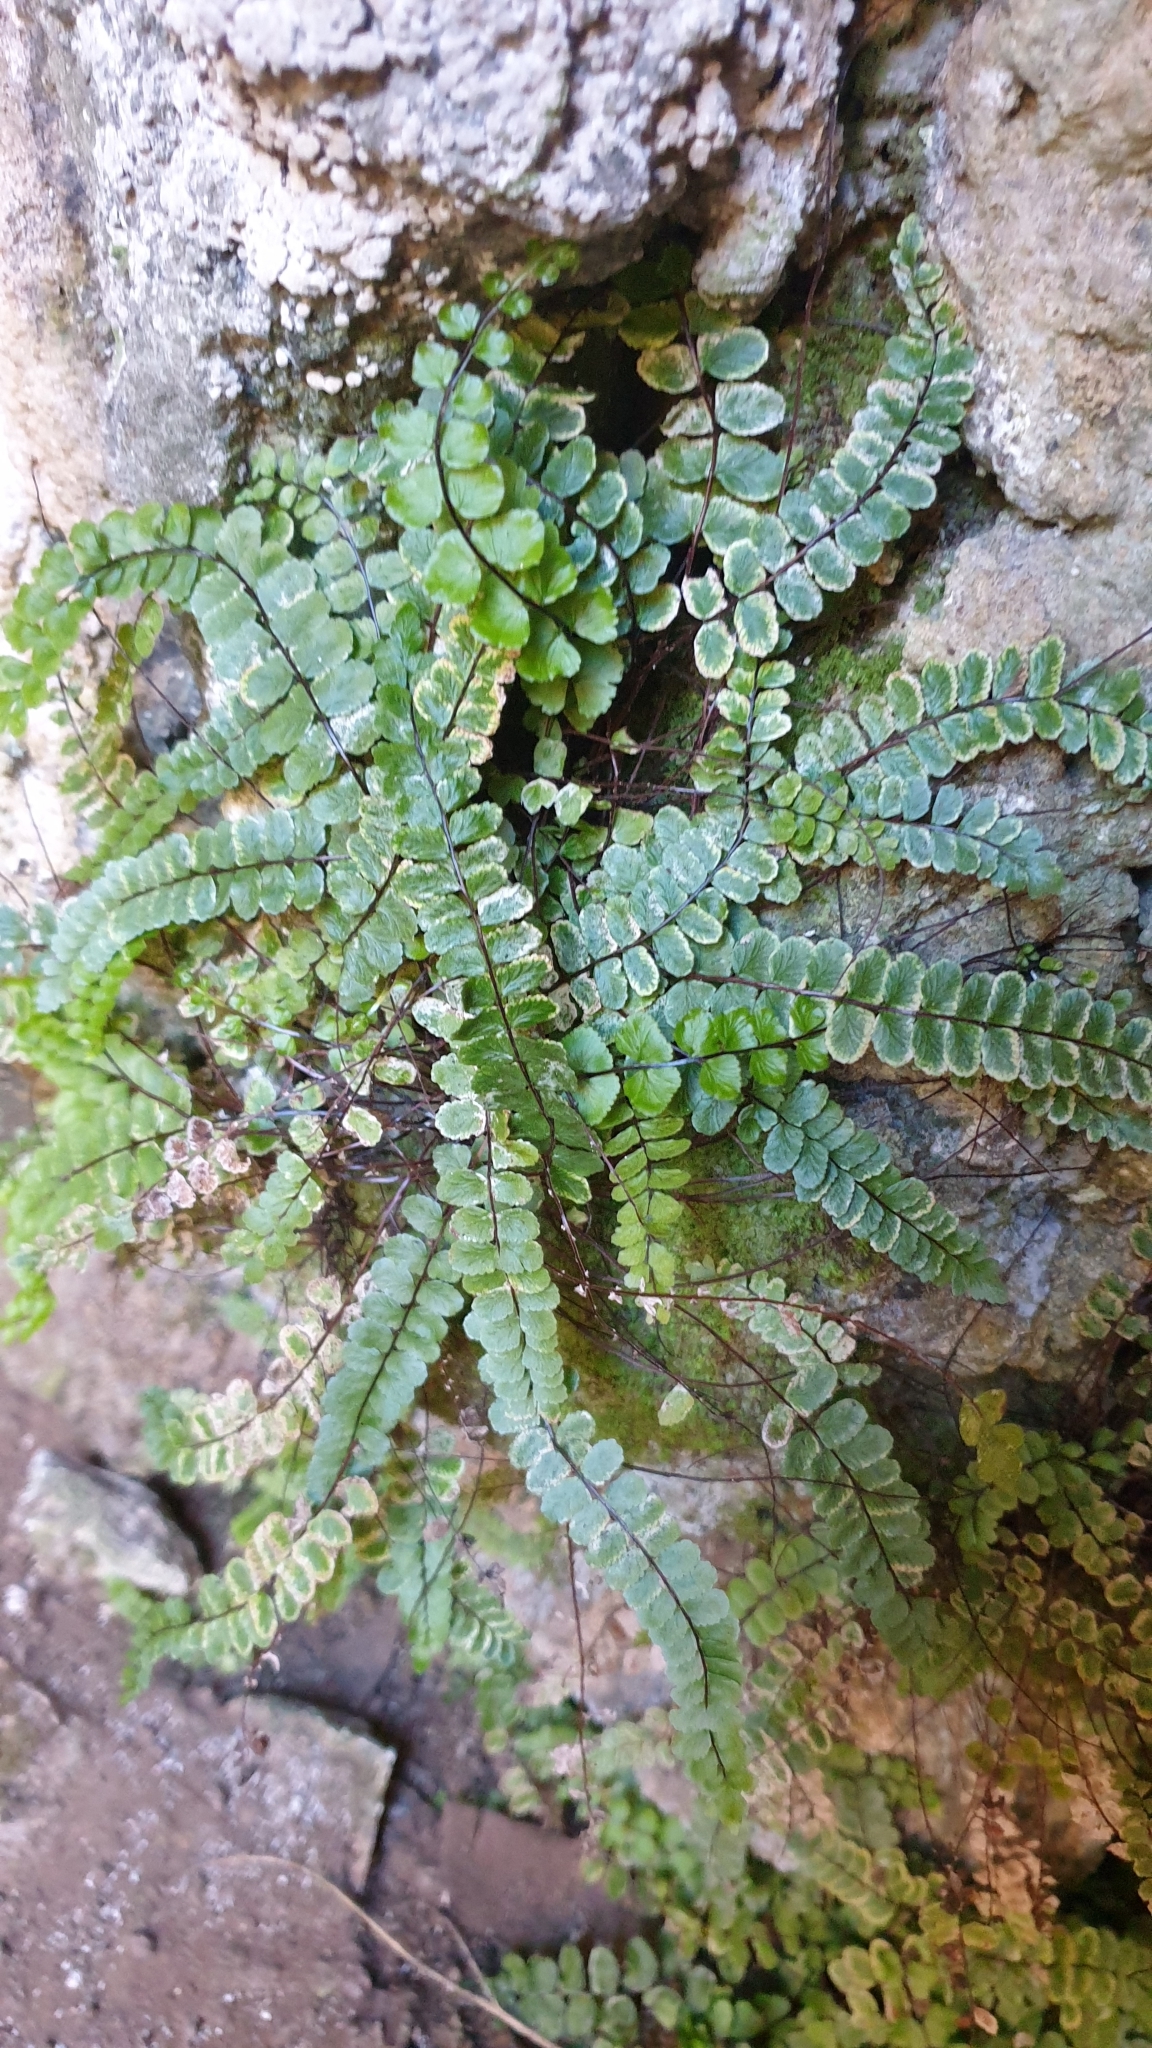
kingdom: Plantae
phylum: Tracheophyta
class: Polypodiopsida
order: Polypodiales
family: Aspleniaceae
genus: Asplenium
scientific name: Asplenium trichomanes
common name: Maidenhair spleenwort
